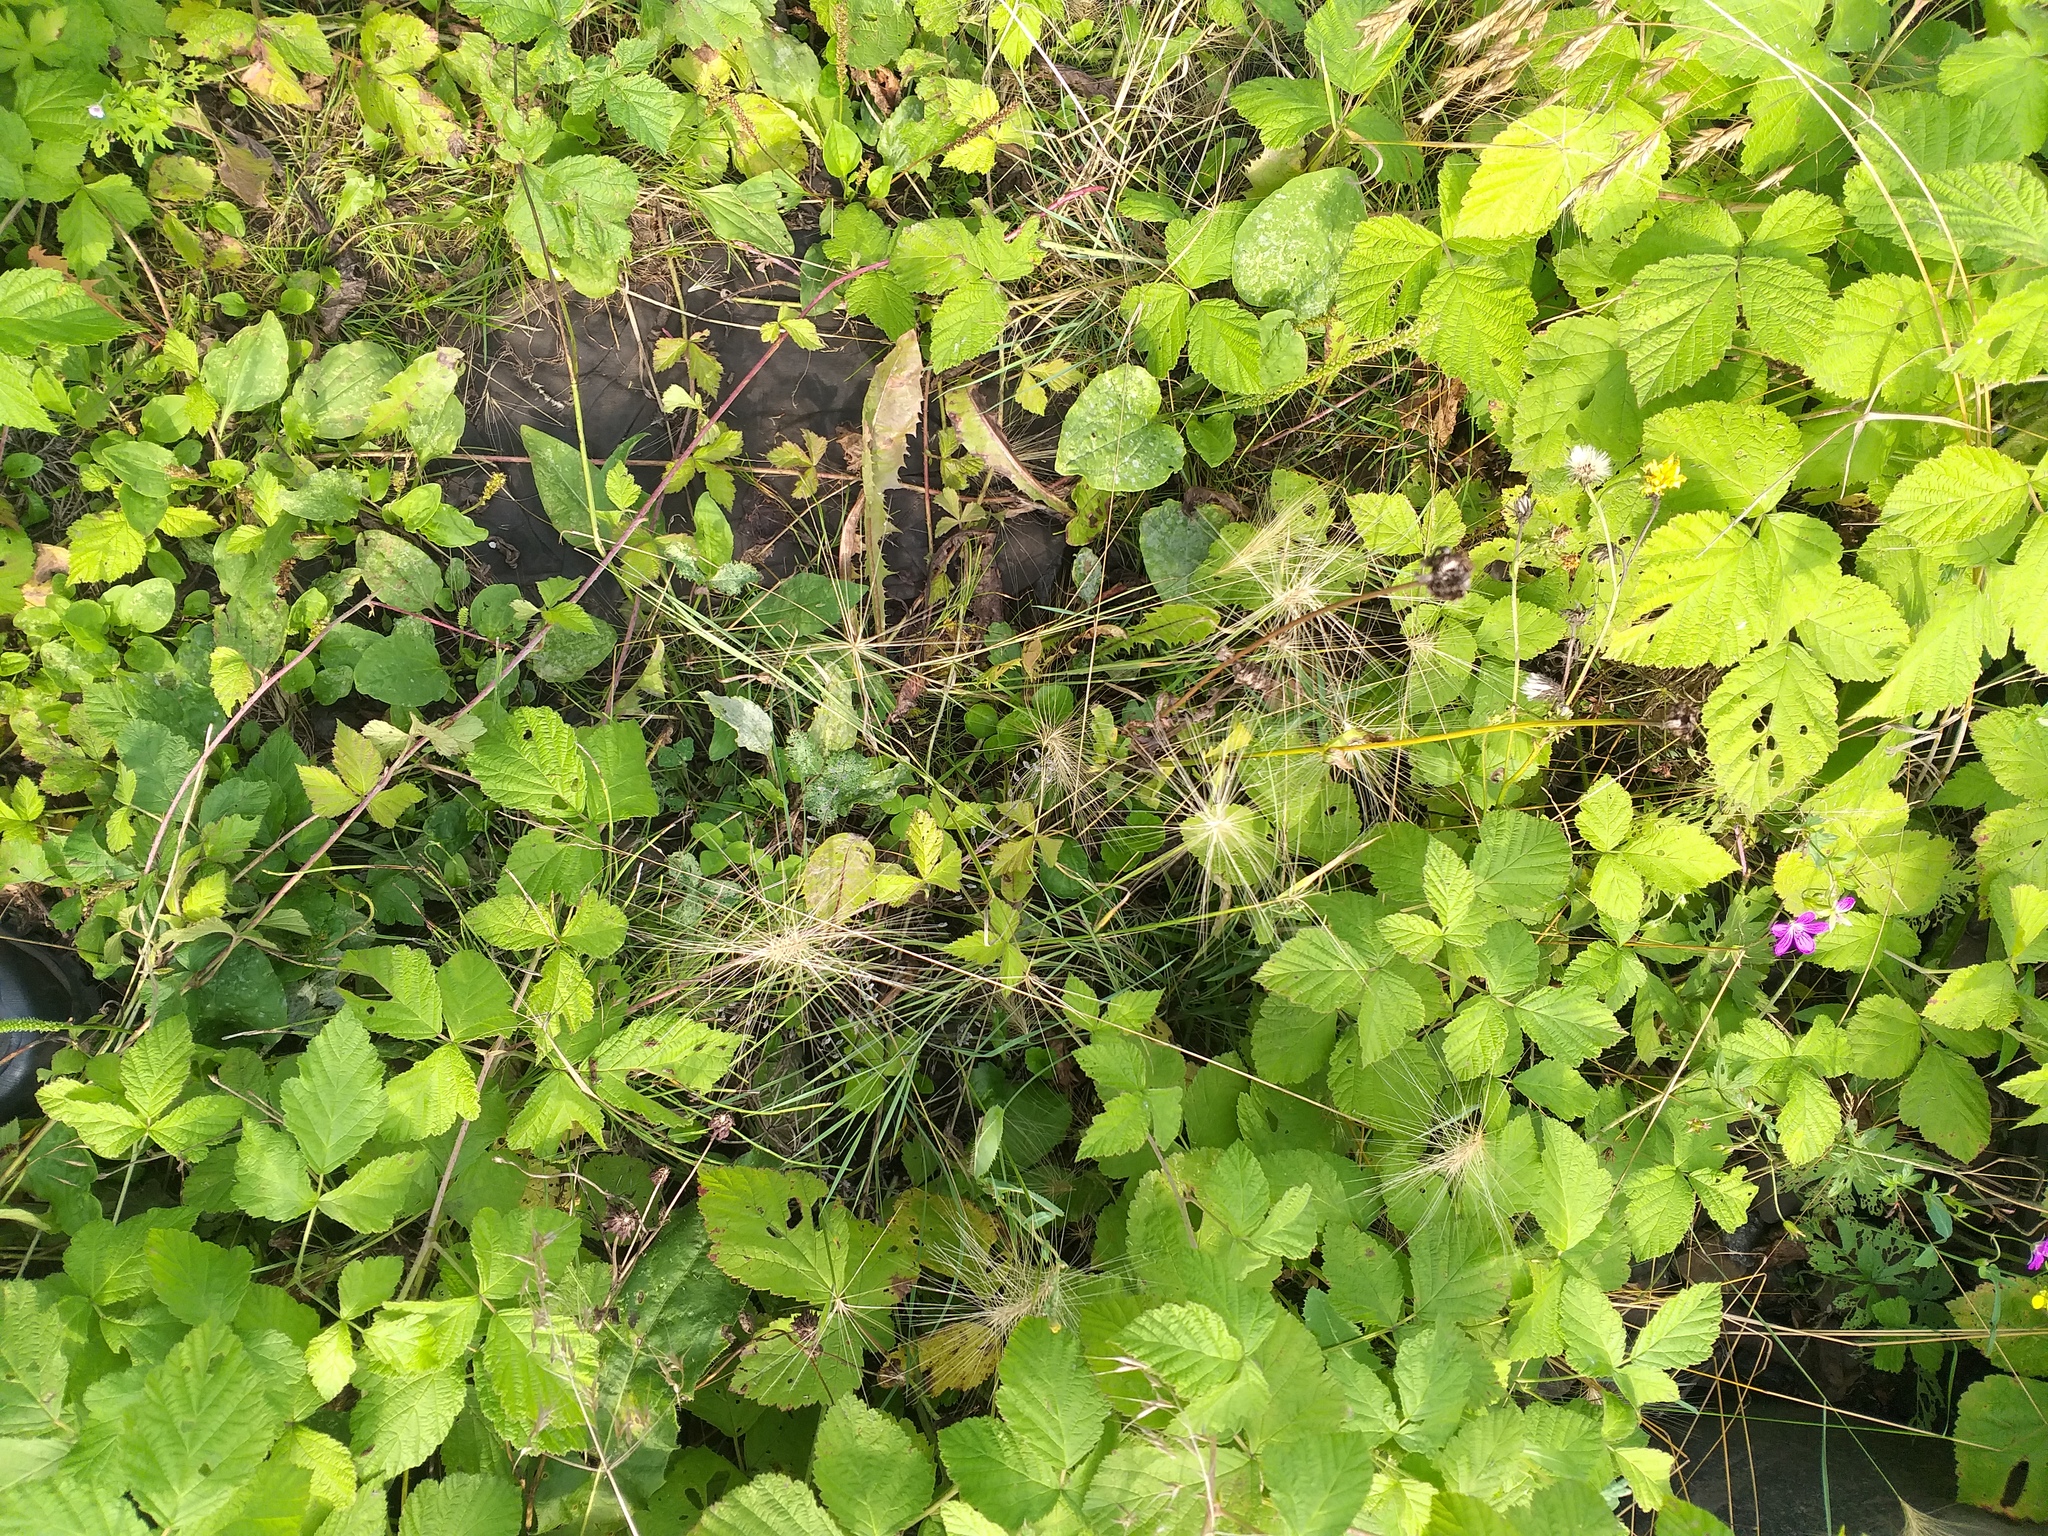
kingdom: Plantae
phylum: Tracheophyta
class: Liliopsida
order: Poales
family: Poaceae
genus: Hordeum
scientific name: Hordeum jubatum
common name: Foxtail barley
